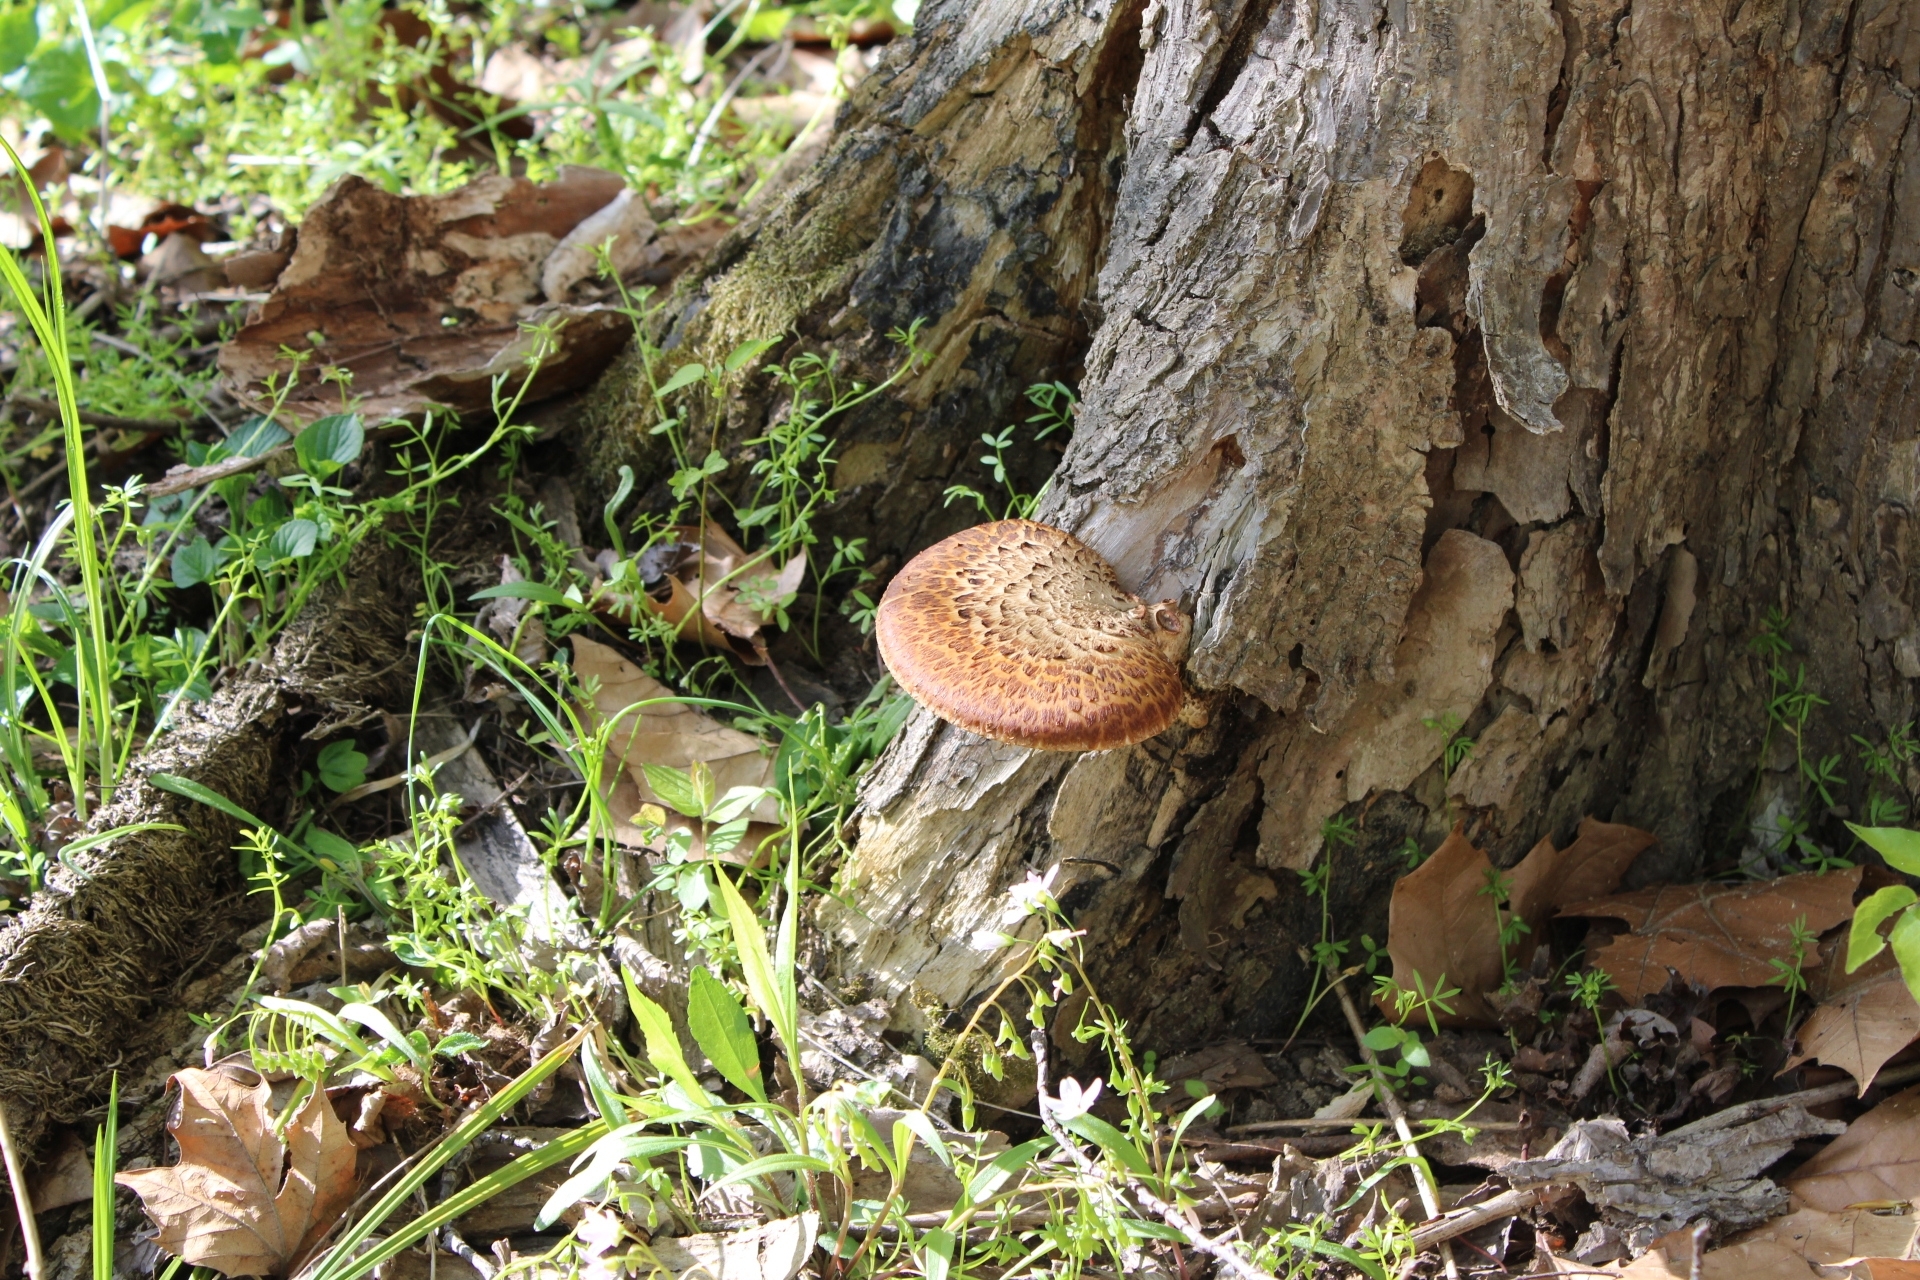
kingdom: Fungi
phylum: Basidiomycota
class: Agaricomycetes
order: Polyporales
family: Polyporaceae
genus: Cerioporus
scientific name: Cerioporus squamosus
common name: Dryad's saddle
